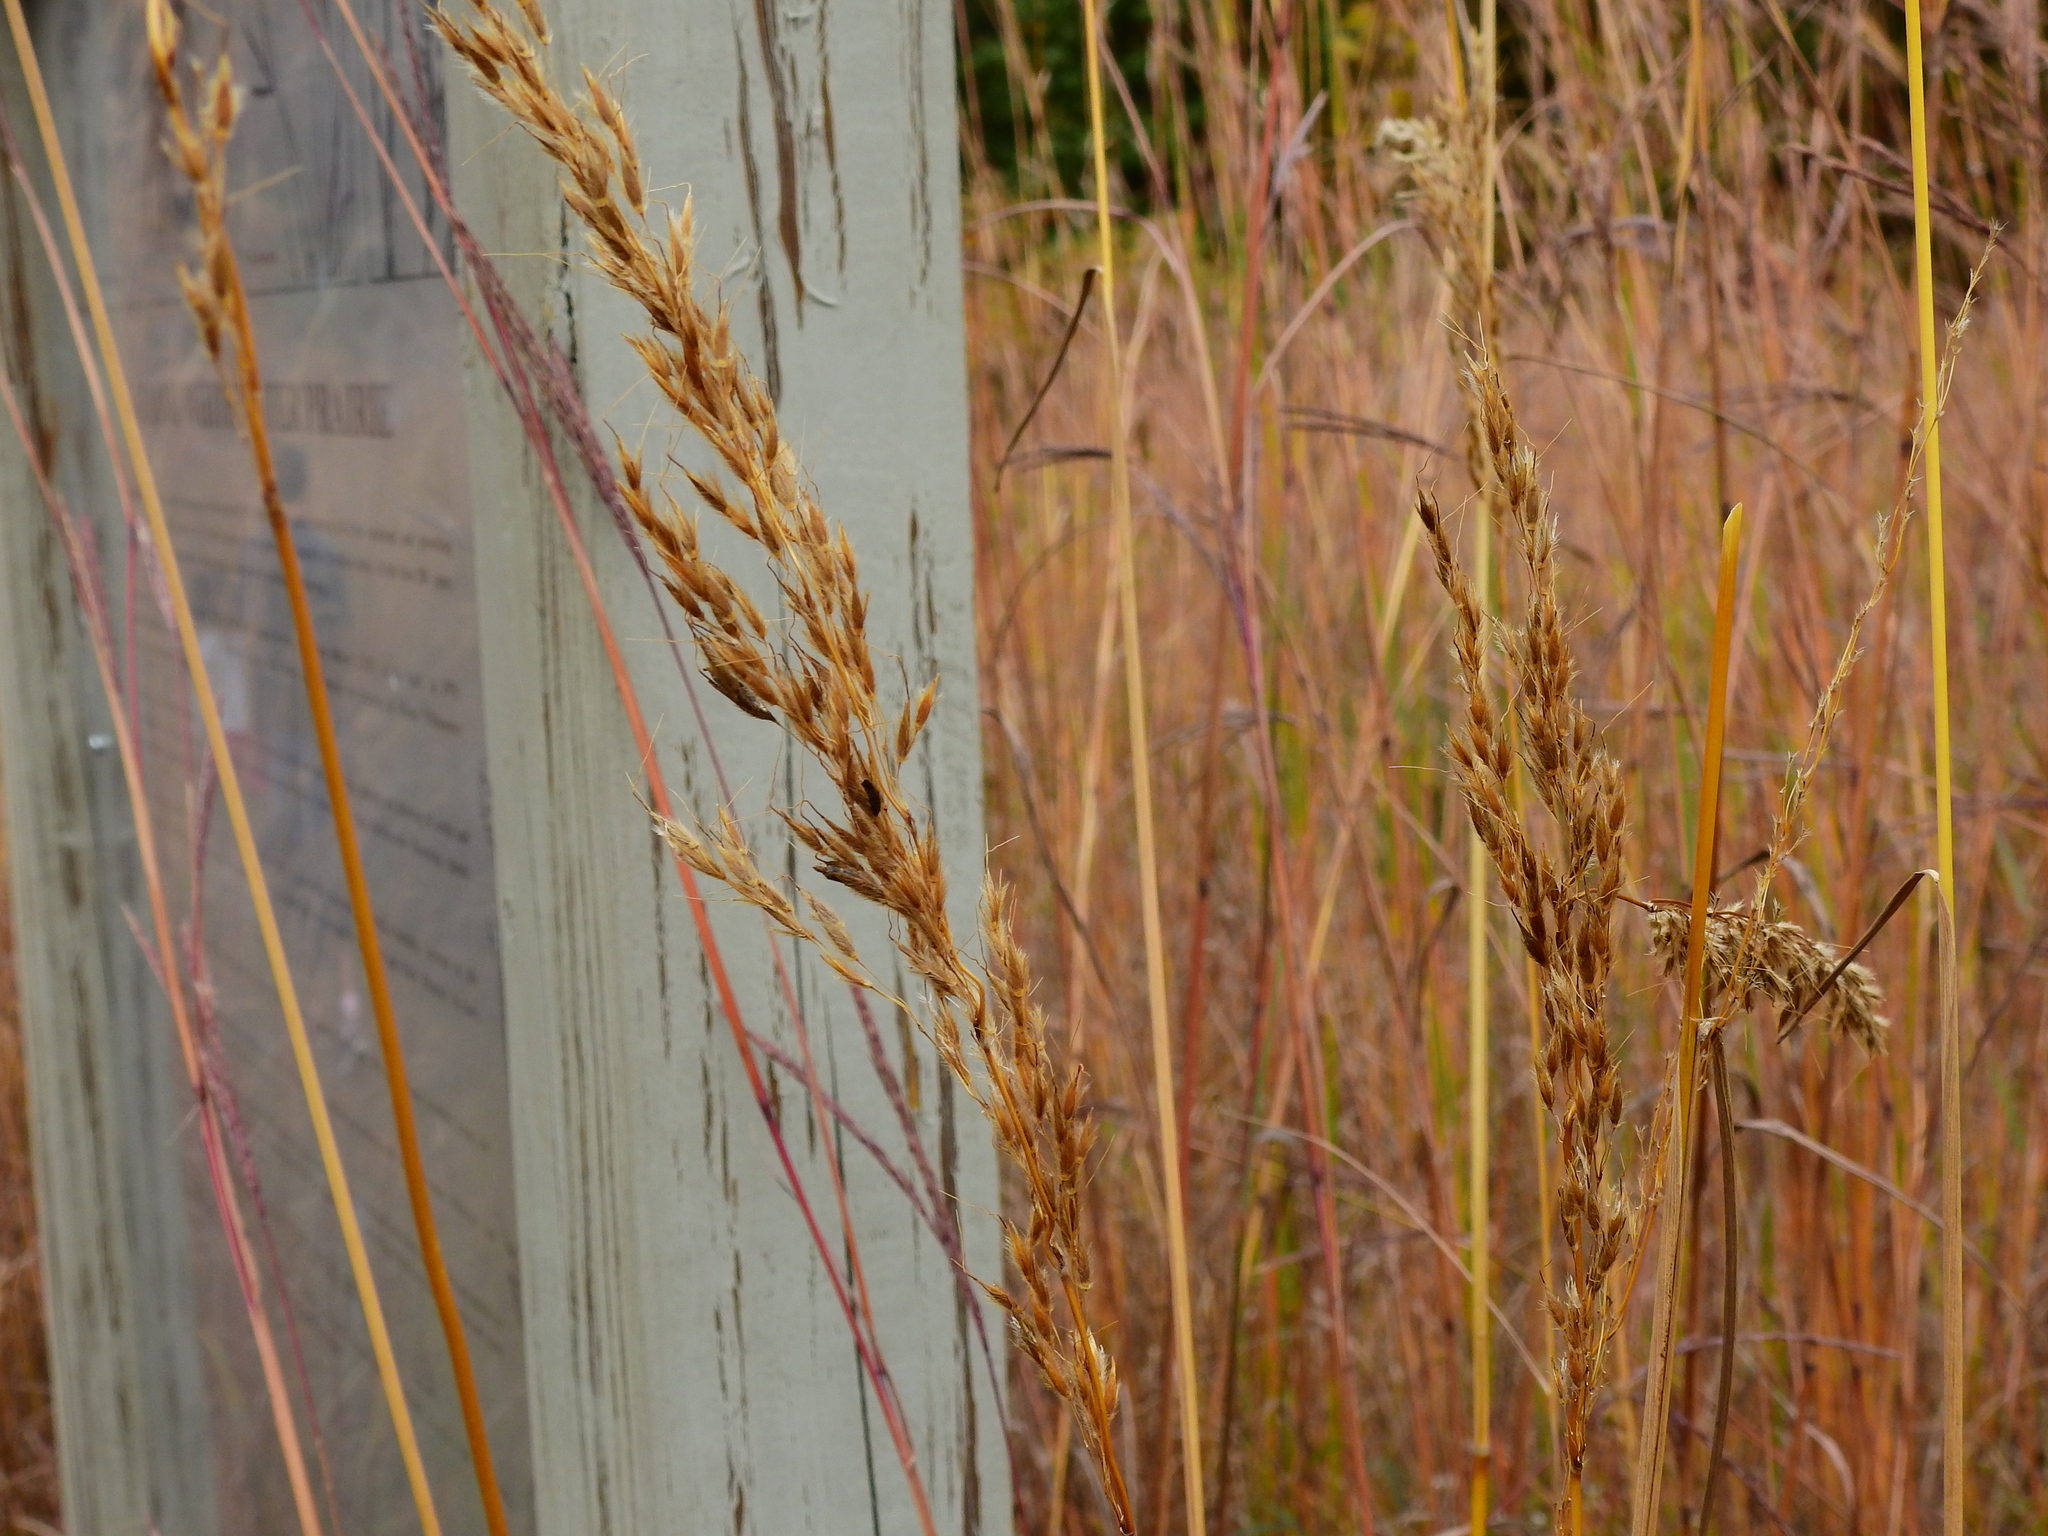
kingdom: Plantae
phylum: Tracheophyta
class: Liliopsida
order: Poales
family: Poaceae
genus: Sorghastrum
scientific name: Sorghastrum nutans
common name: Indian grass
